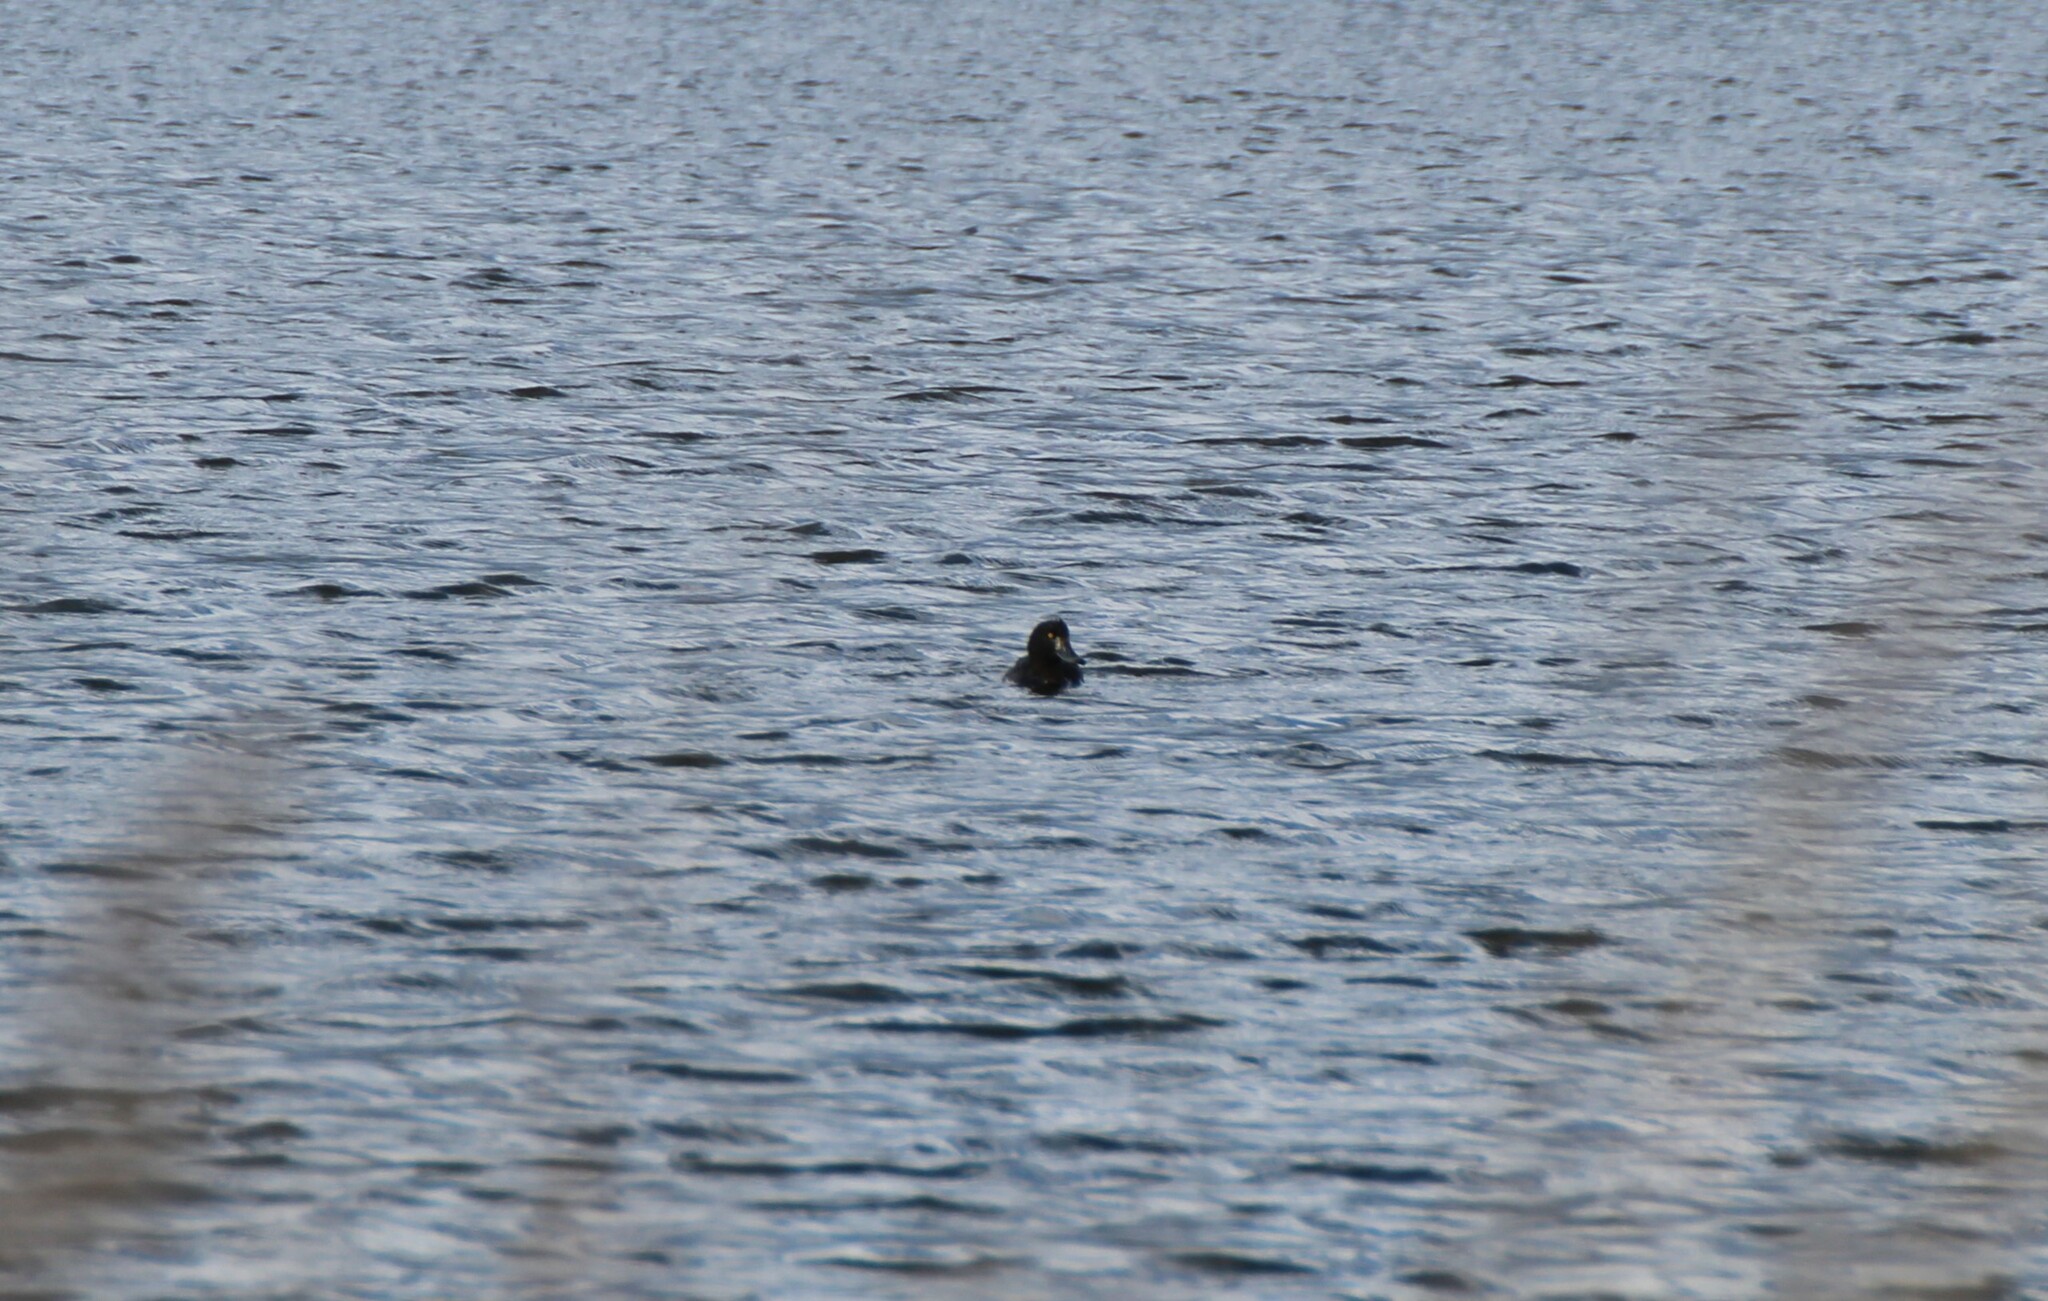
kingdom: Animalia
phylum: Chordata
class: Aves
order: Anseriformes
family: Anatidae
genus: Aythya
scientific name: Aythya fuligula
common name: Tufted duck
